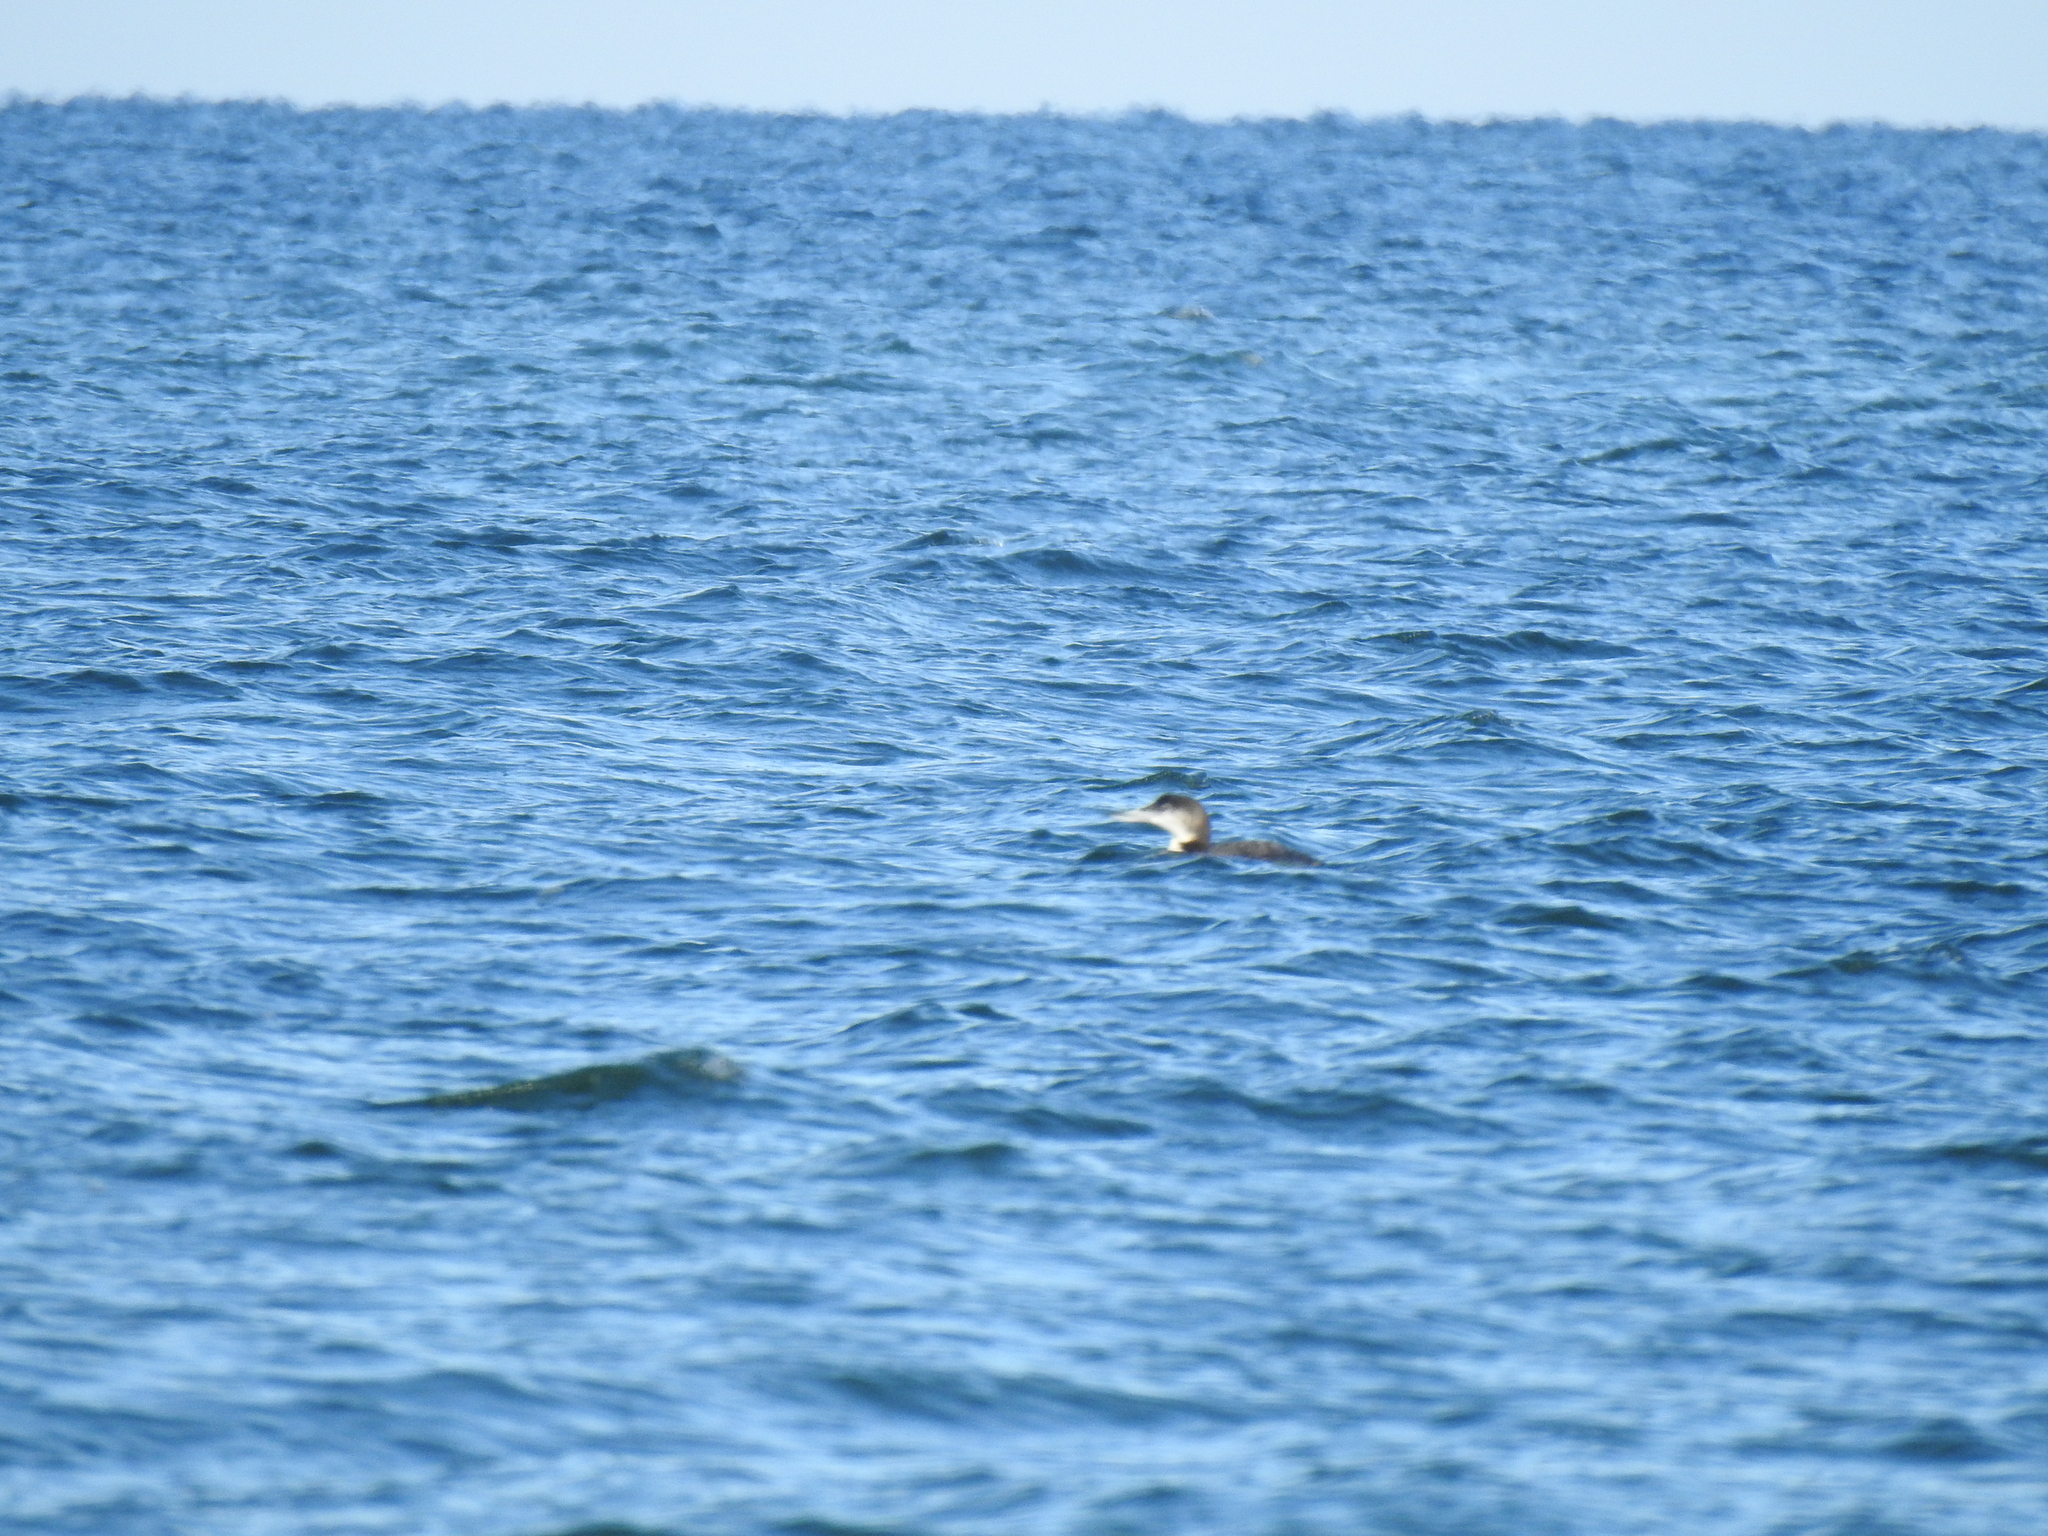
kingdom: Animalia
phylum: Chordata
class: Aves
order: Gaviiformes
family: Gaviidae
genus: Gavia
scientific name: Gavia immer
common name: Common loon
